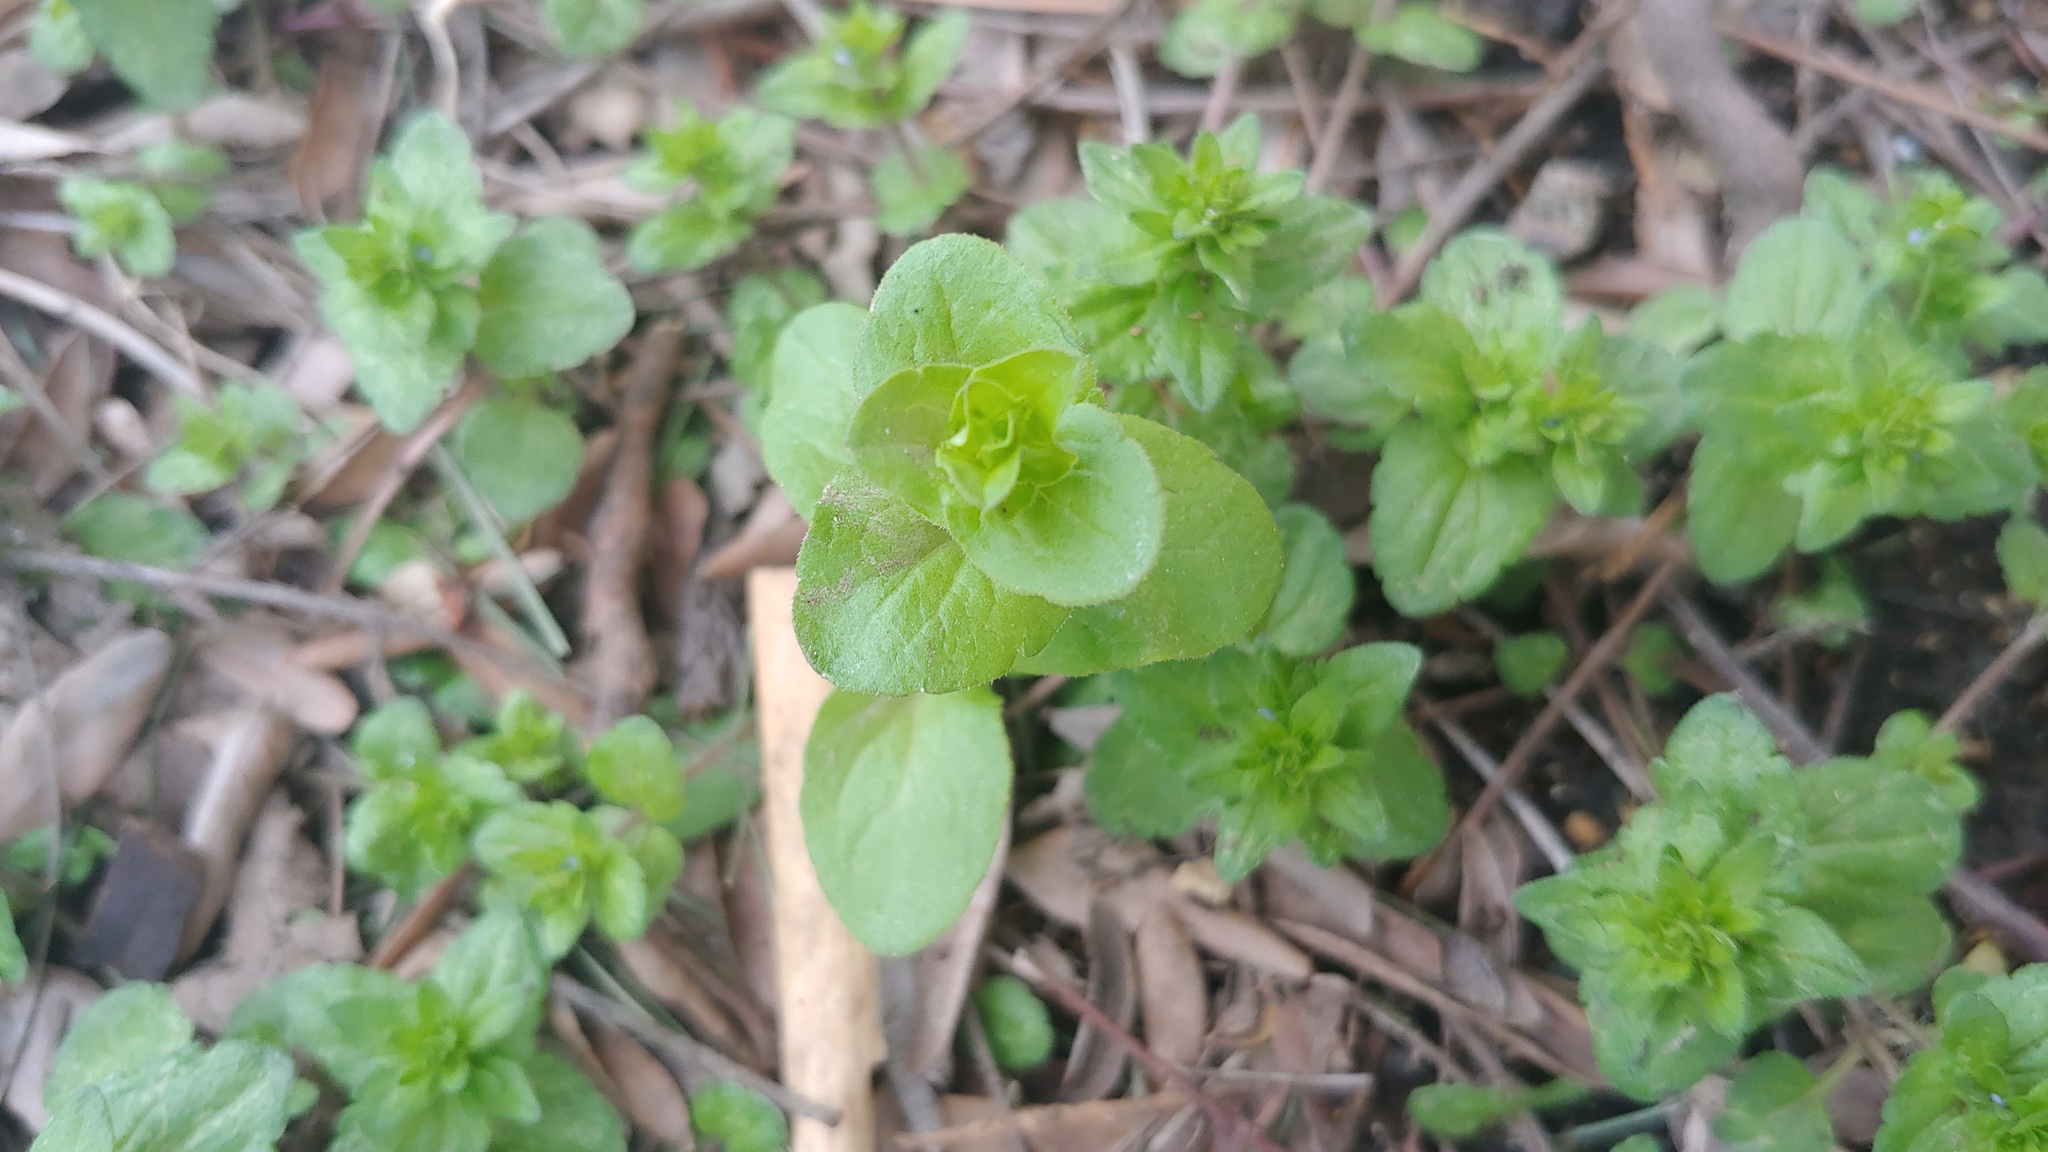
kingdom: Plantae
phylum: Tracheophyta
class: Magnoliopsida
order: Asterales
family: Campanulaceae
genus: Triodanis
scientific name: Triodanis perfoliata
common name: Clasping venus' looking-glass
